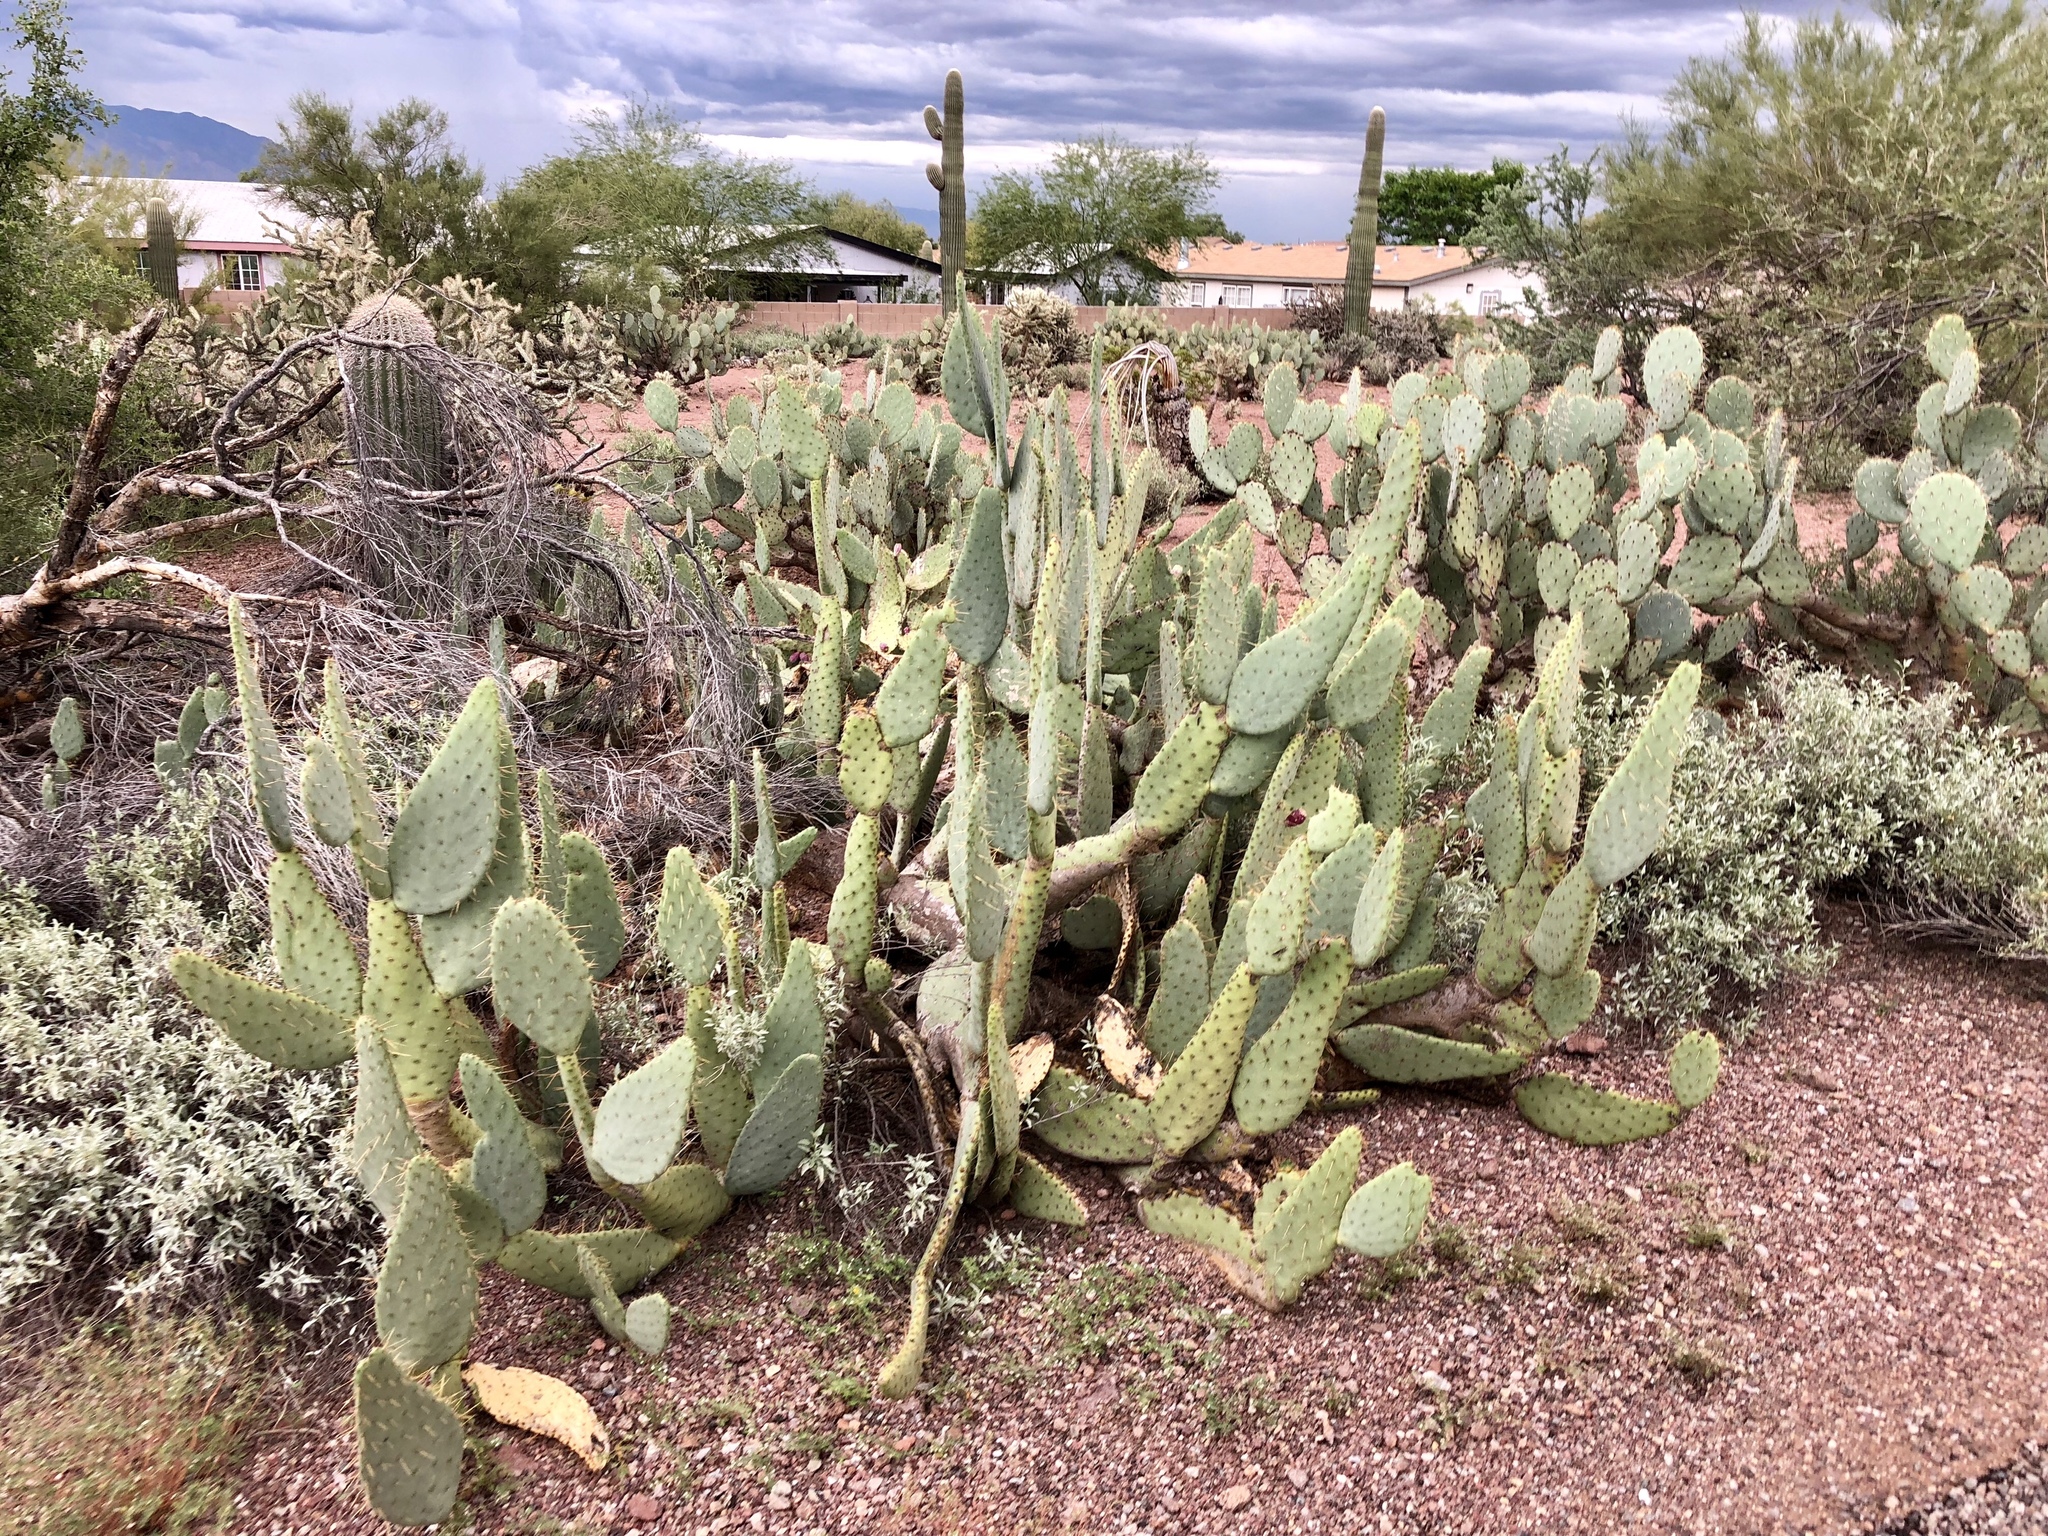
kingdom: Plantae
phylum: Tracheophyta
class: Magnoliopsida
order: Caryophyllales
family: Cactaceae
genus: Opuntia
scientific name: Opuntia engelmannii
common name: Cactus-apple
